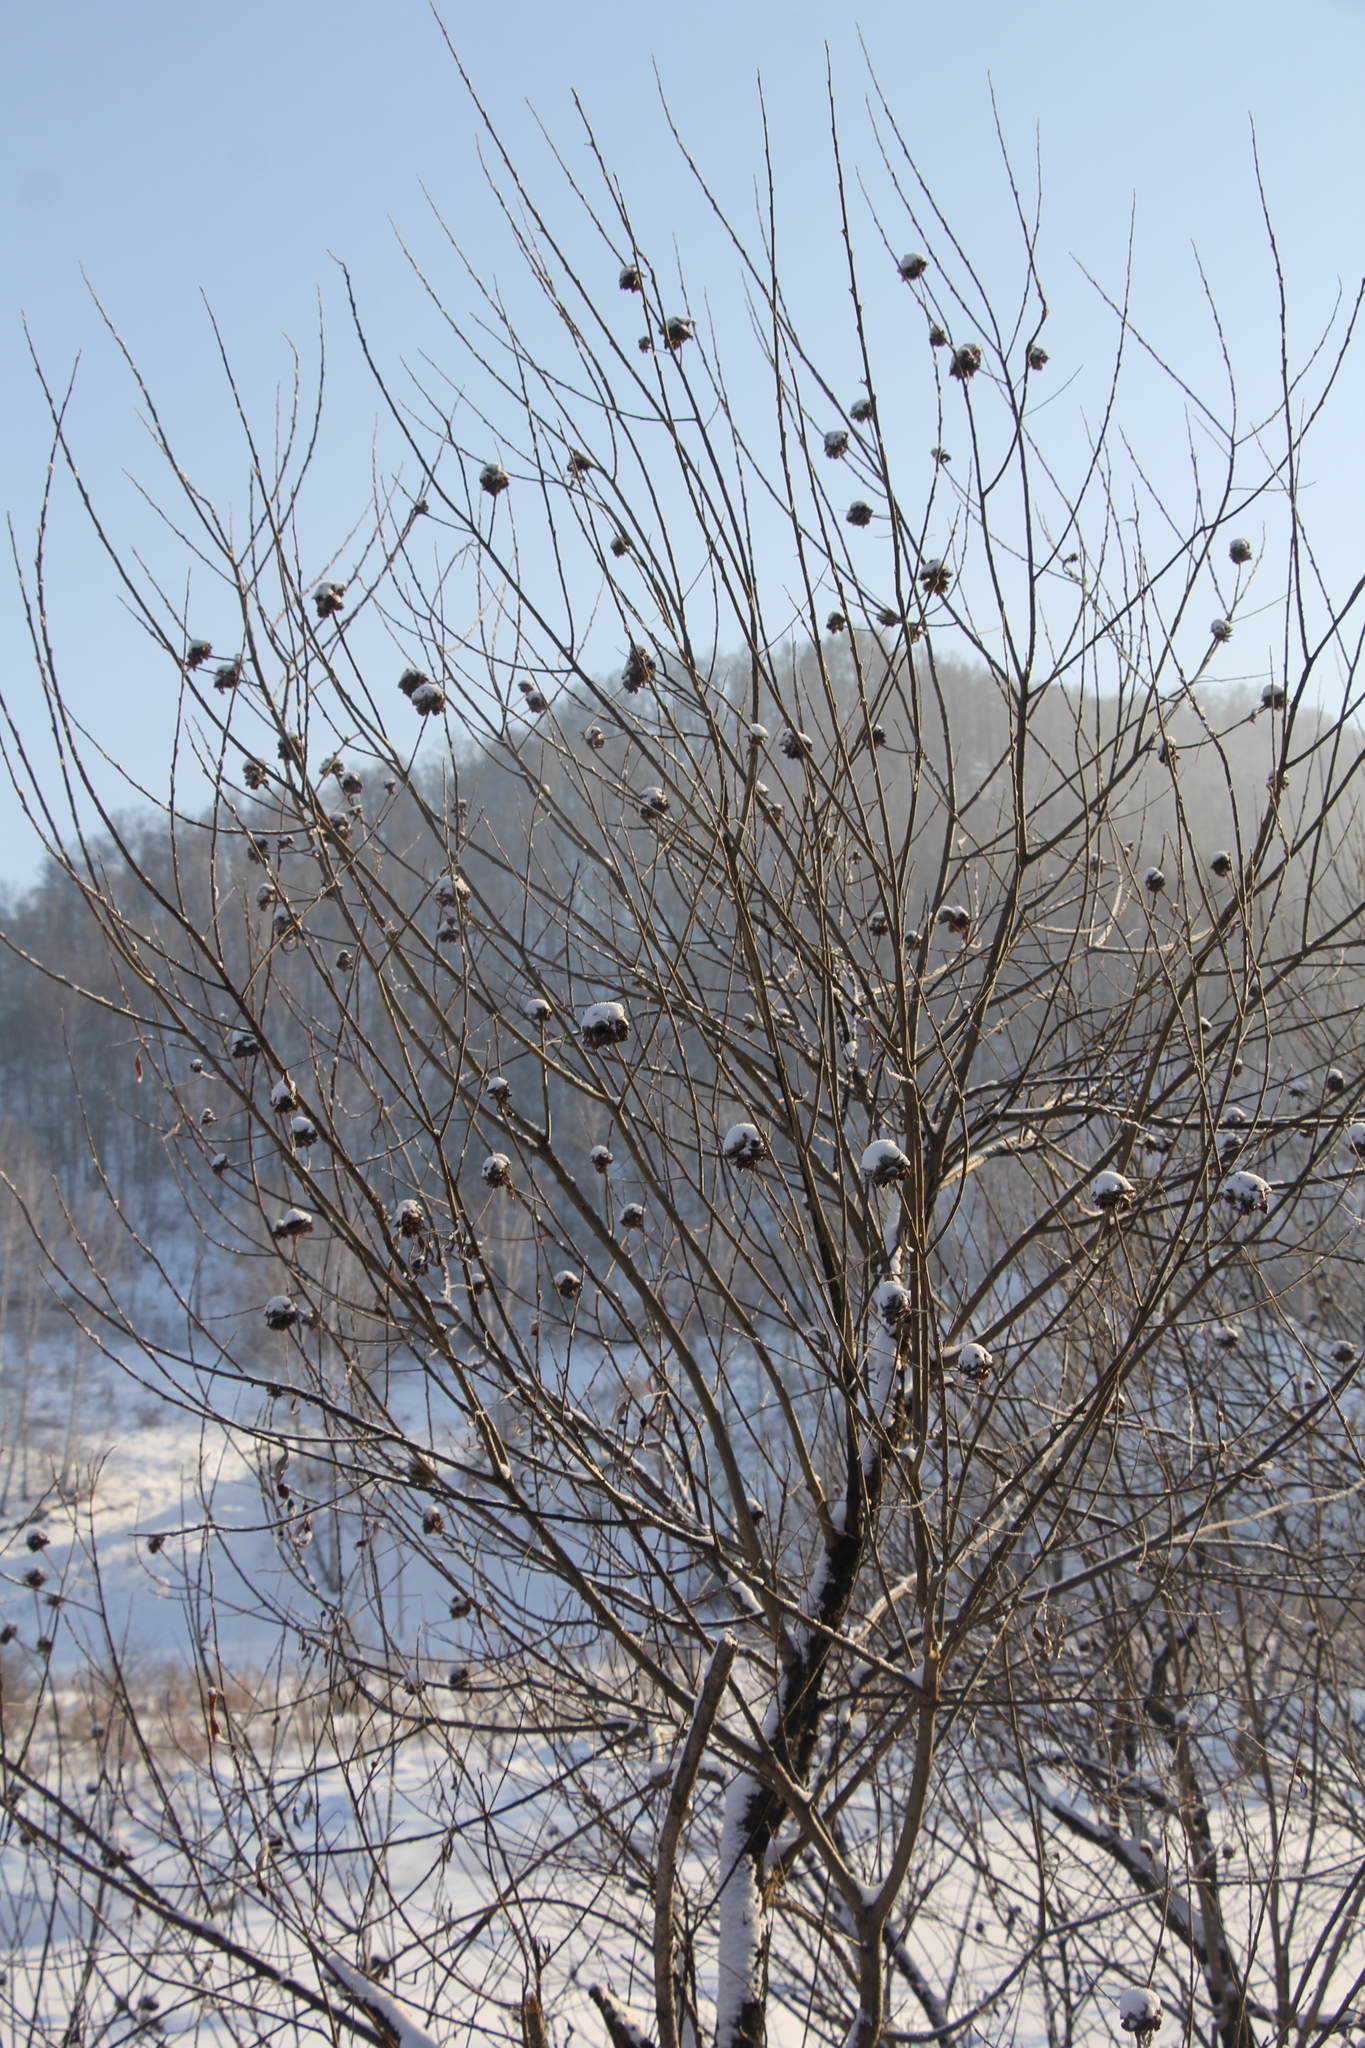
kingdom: Animalia
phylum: Arthropoda
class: Insecta
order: Diptera
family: Cecidomyiidae
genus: Rabdophaga
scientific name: Rabdophaga rosaria
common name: Willow rose gall midge
